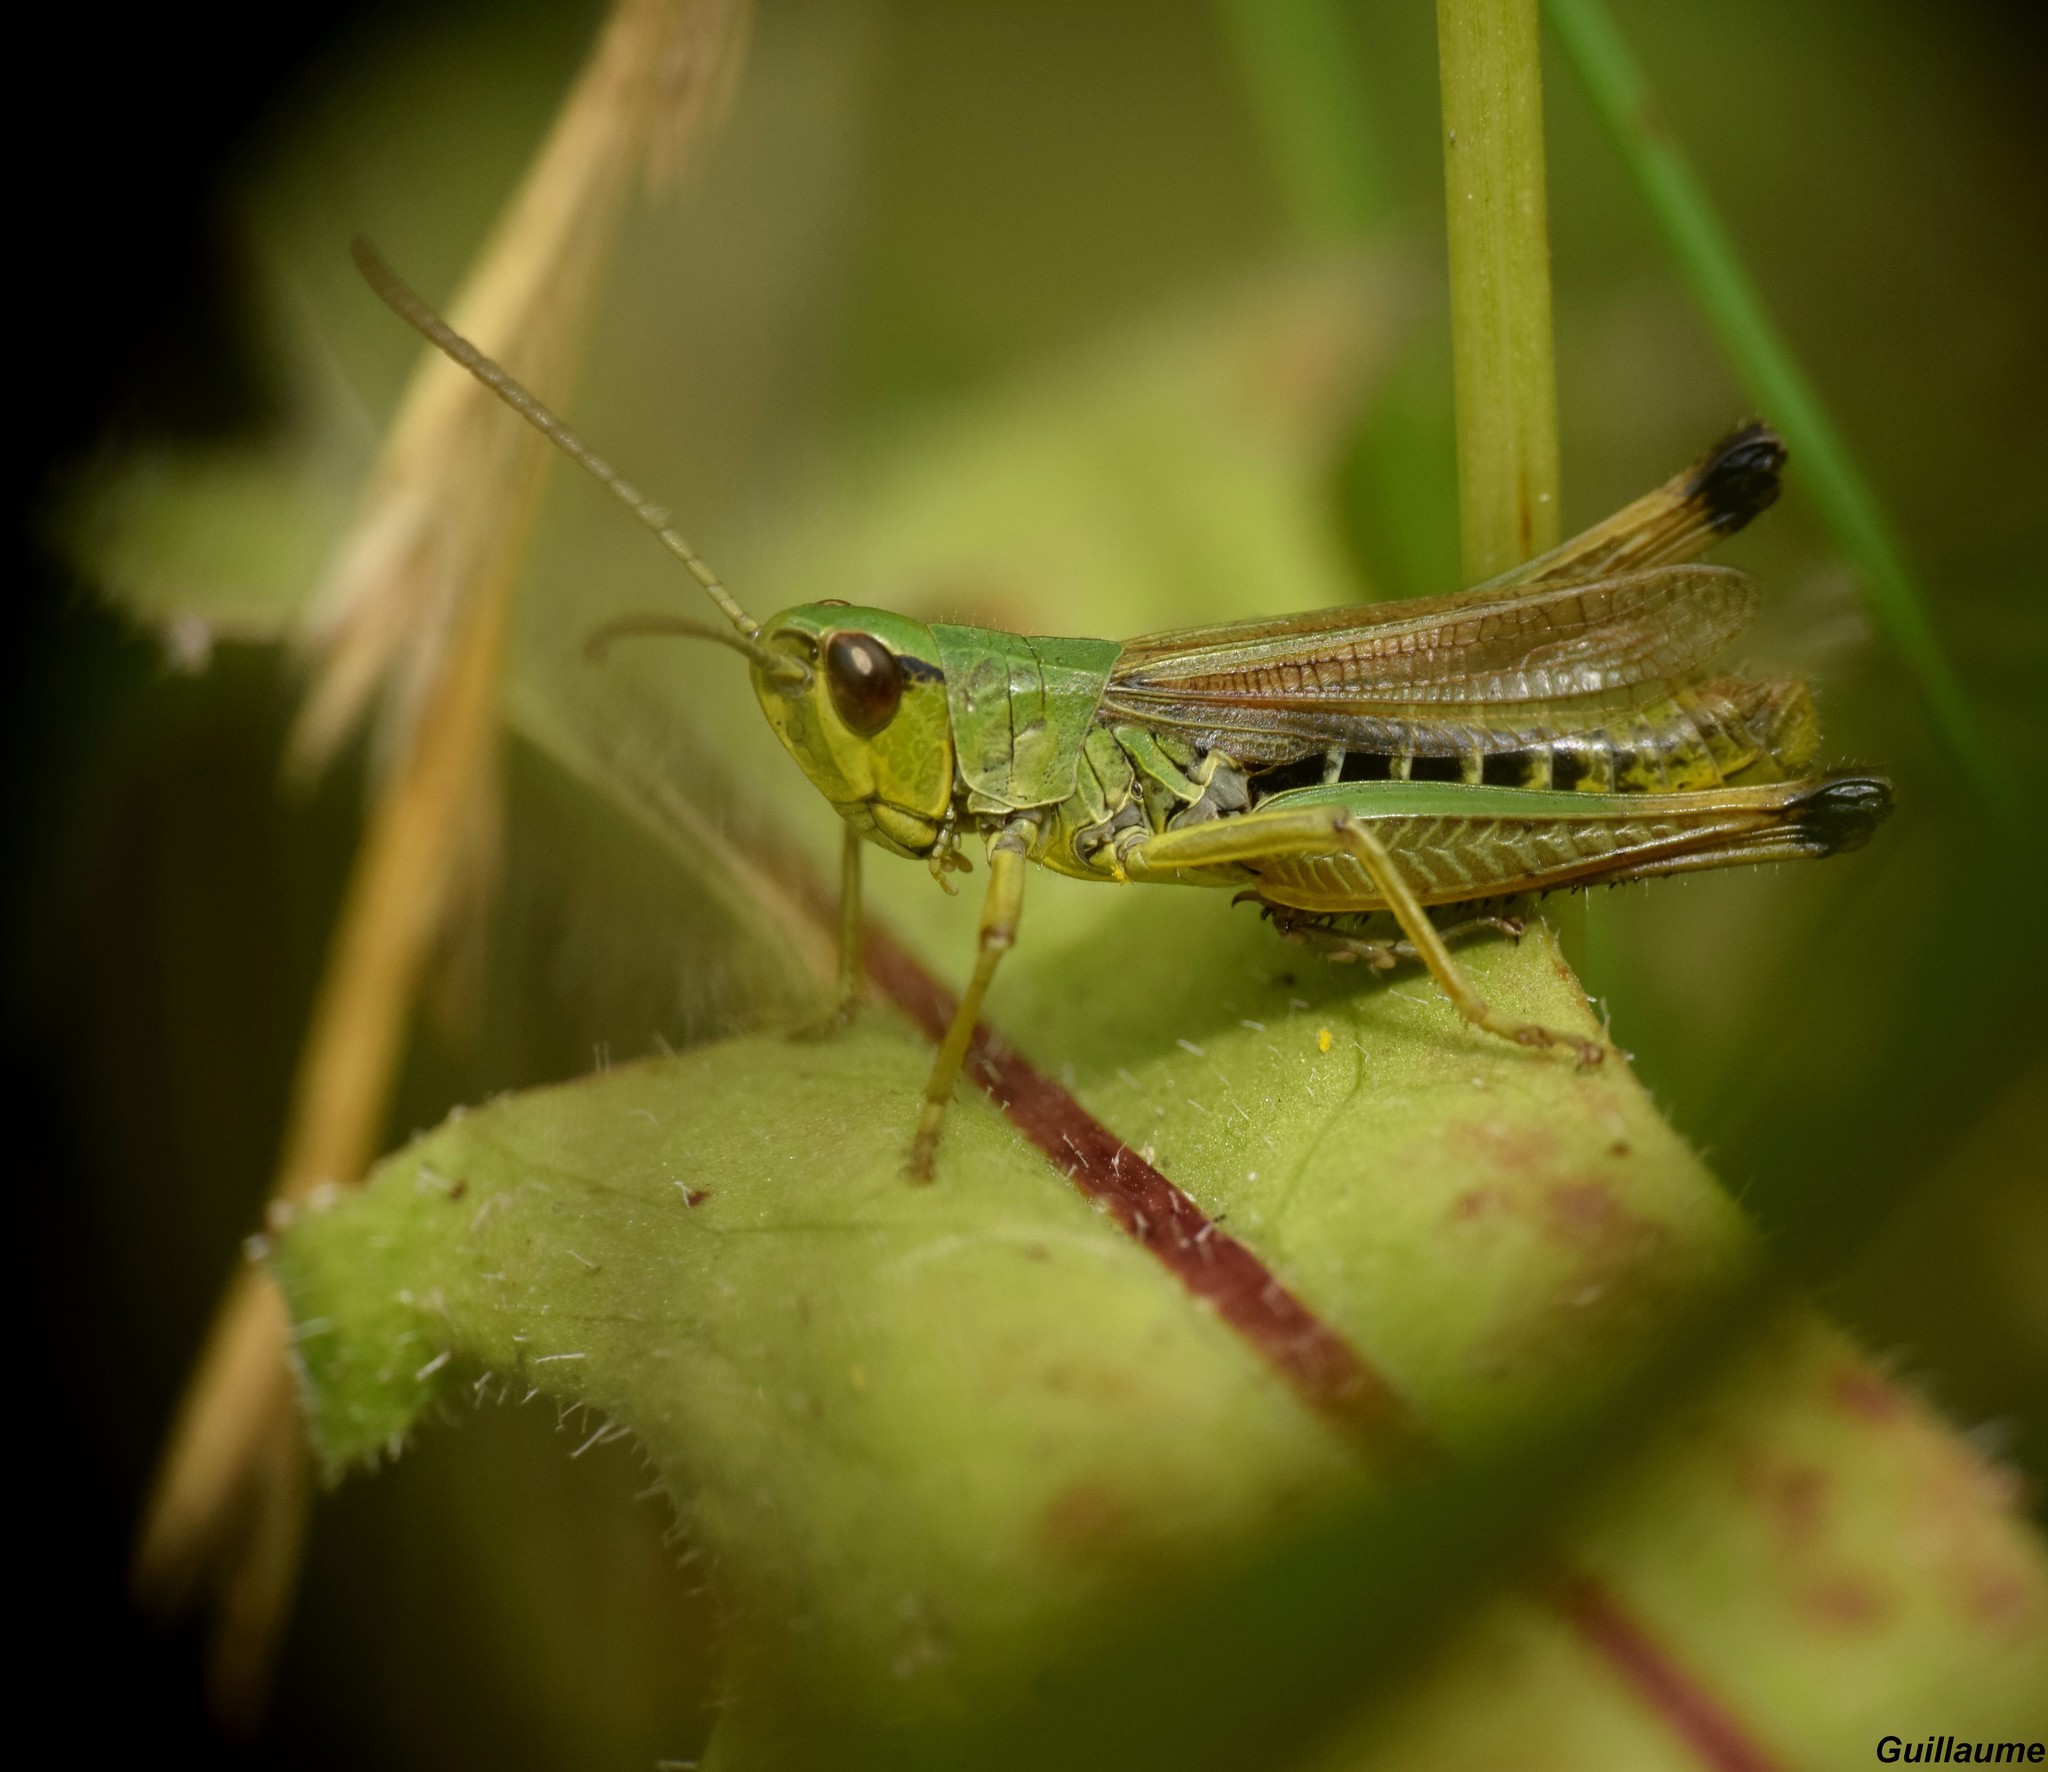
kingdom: Animalia
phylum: Arthropoda
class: Insecta
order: Orthoptera
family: Acrididae
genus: Pseudochorthippus
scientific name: Pseudochorthippus parallelus
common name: Meadow grasshopper
